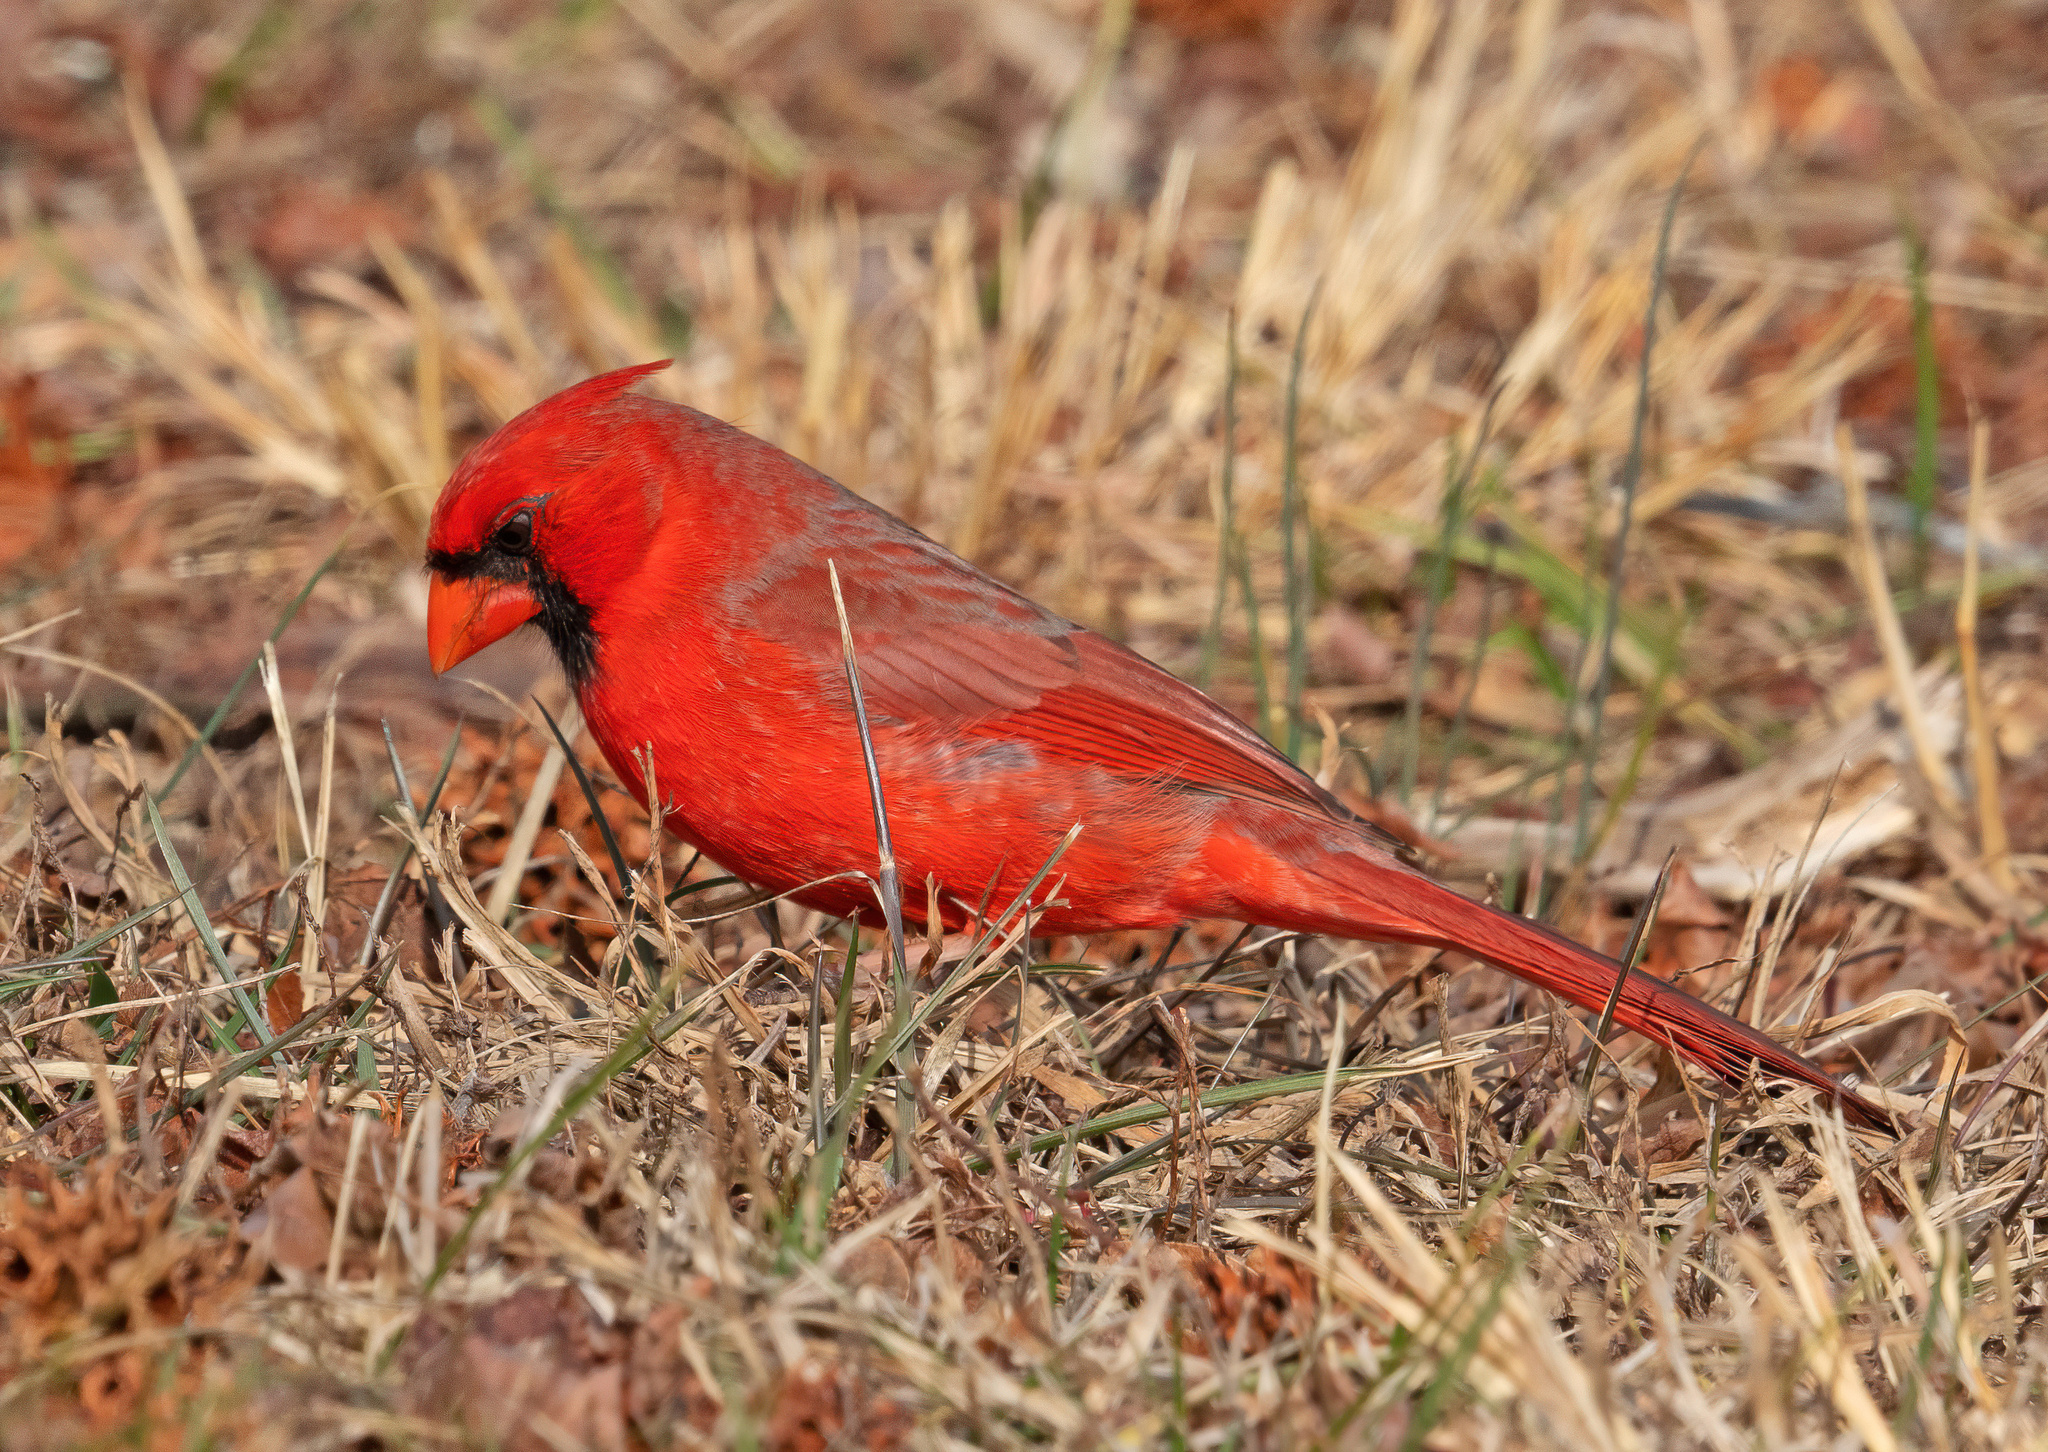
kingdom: Animalia
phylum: Chordata
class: Aves
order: Passeriformes
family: Cardinalidae
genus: Cardinalis
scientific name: Cardinalis cardinalis
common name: Northern cardinal
